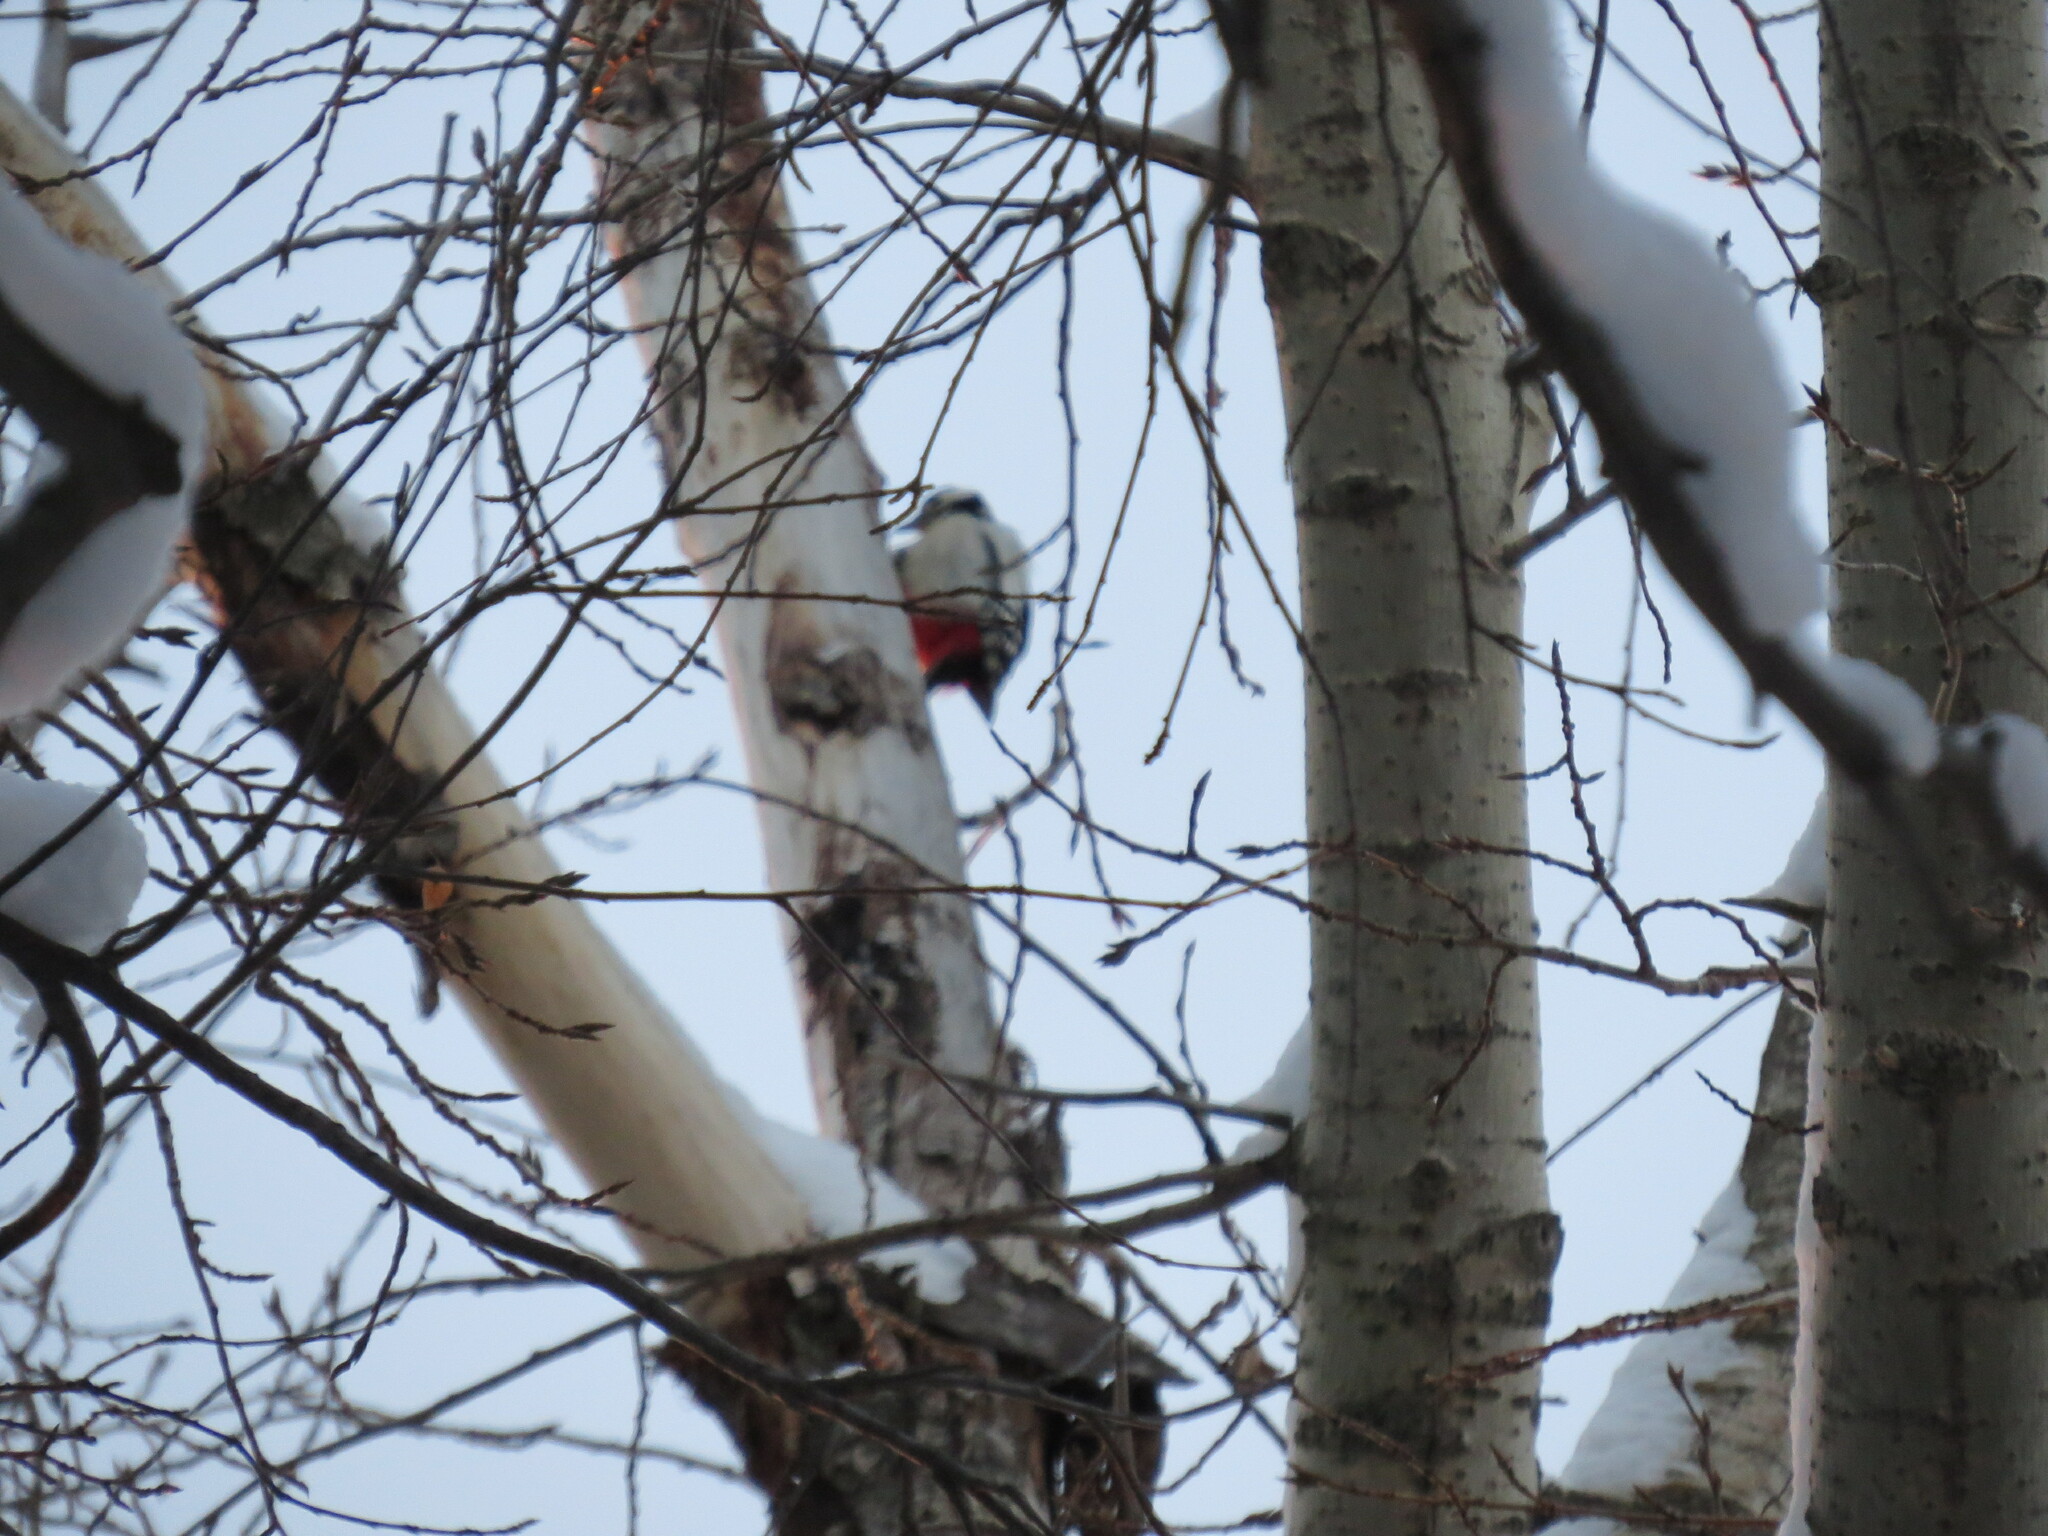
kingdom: Animalia
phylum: Chordata
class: Aves
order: Piciformes
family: Picidae
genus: Dendrocopos
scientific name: Dendrocopos major
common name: Great spotted woodpecker
